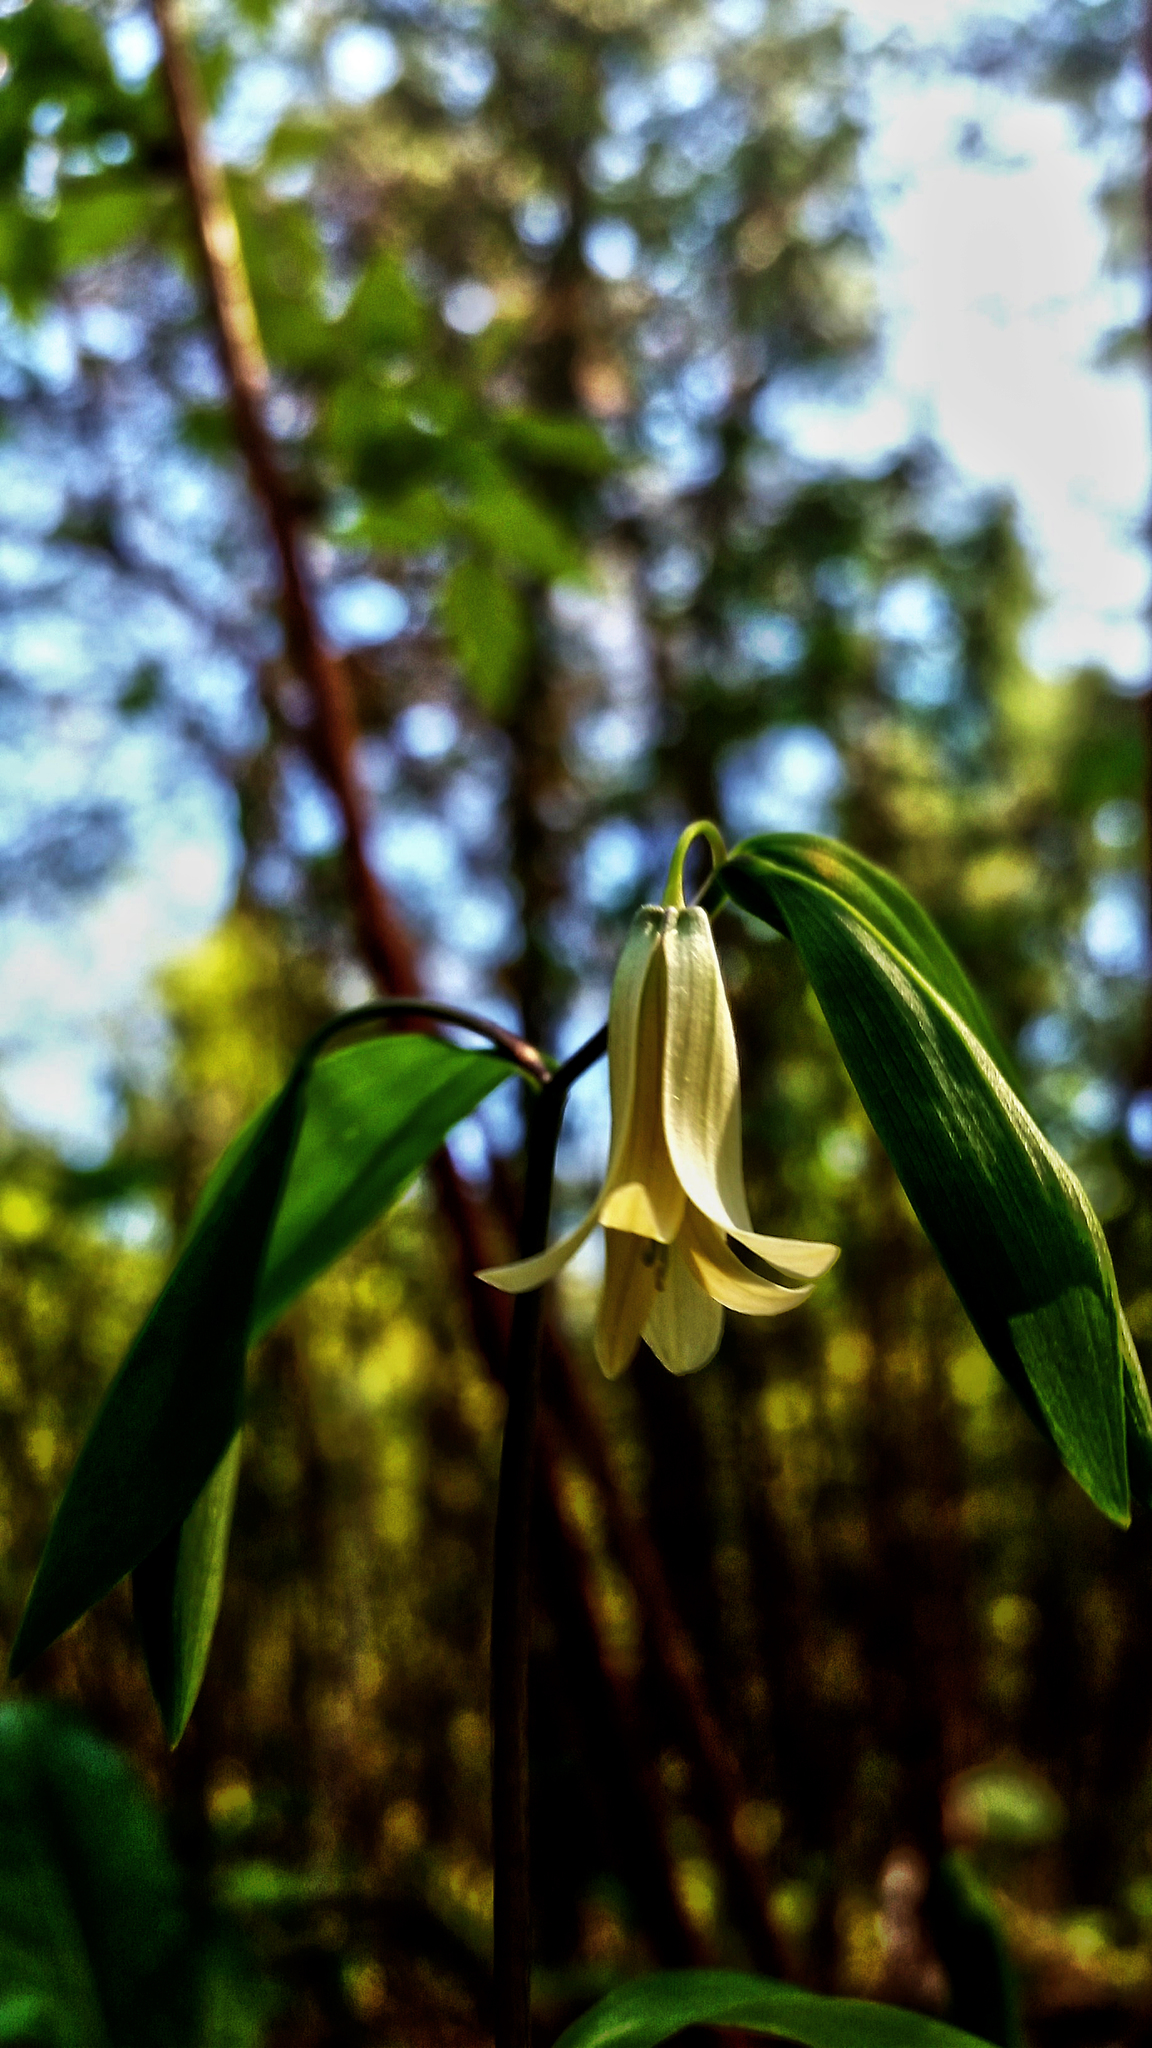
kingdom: Plantae
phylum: Tracheophyta
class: Liliopsida
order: Liliales
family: Colchicaceae
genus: Uvularia
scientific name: Uvularia sessilifolia
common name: Straw-lily
